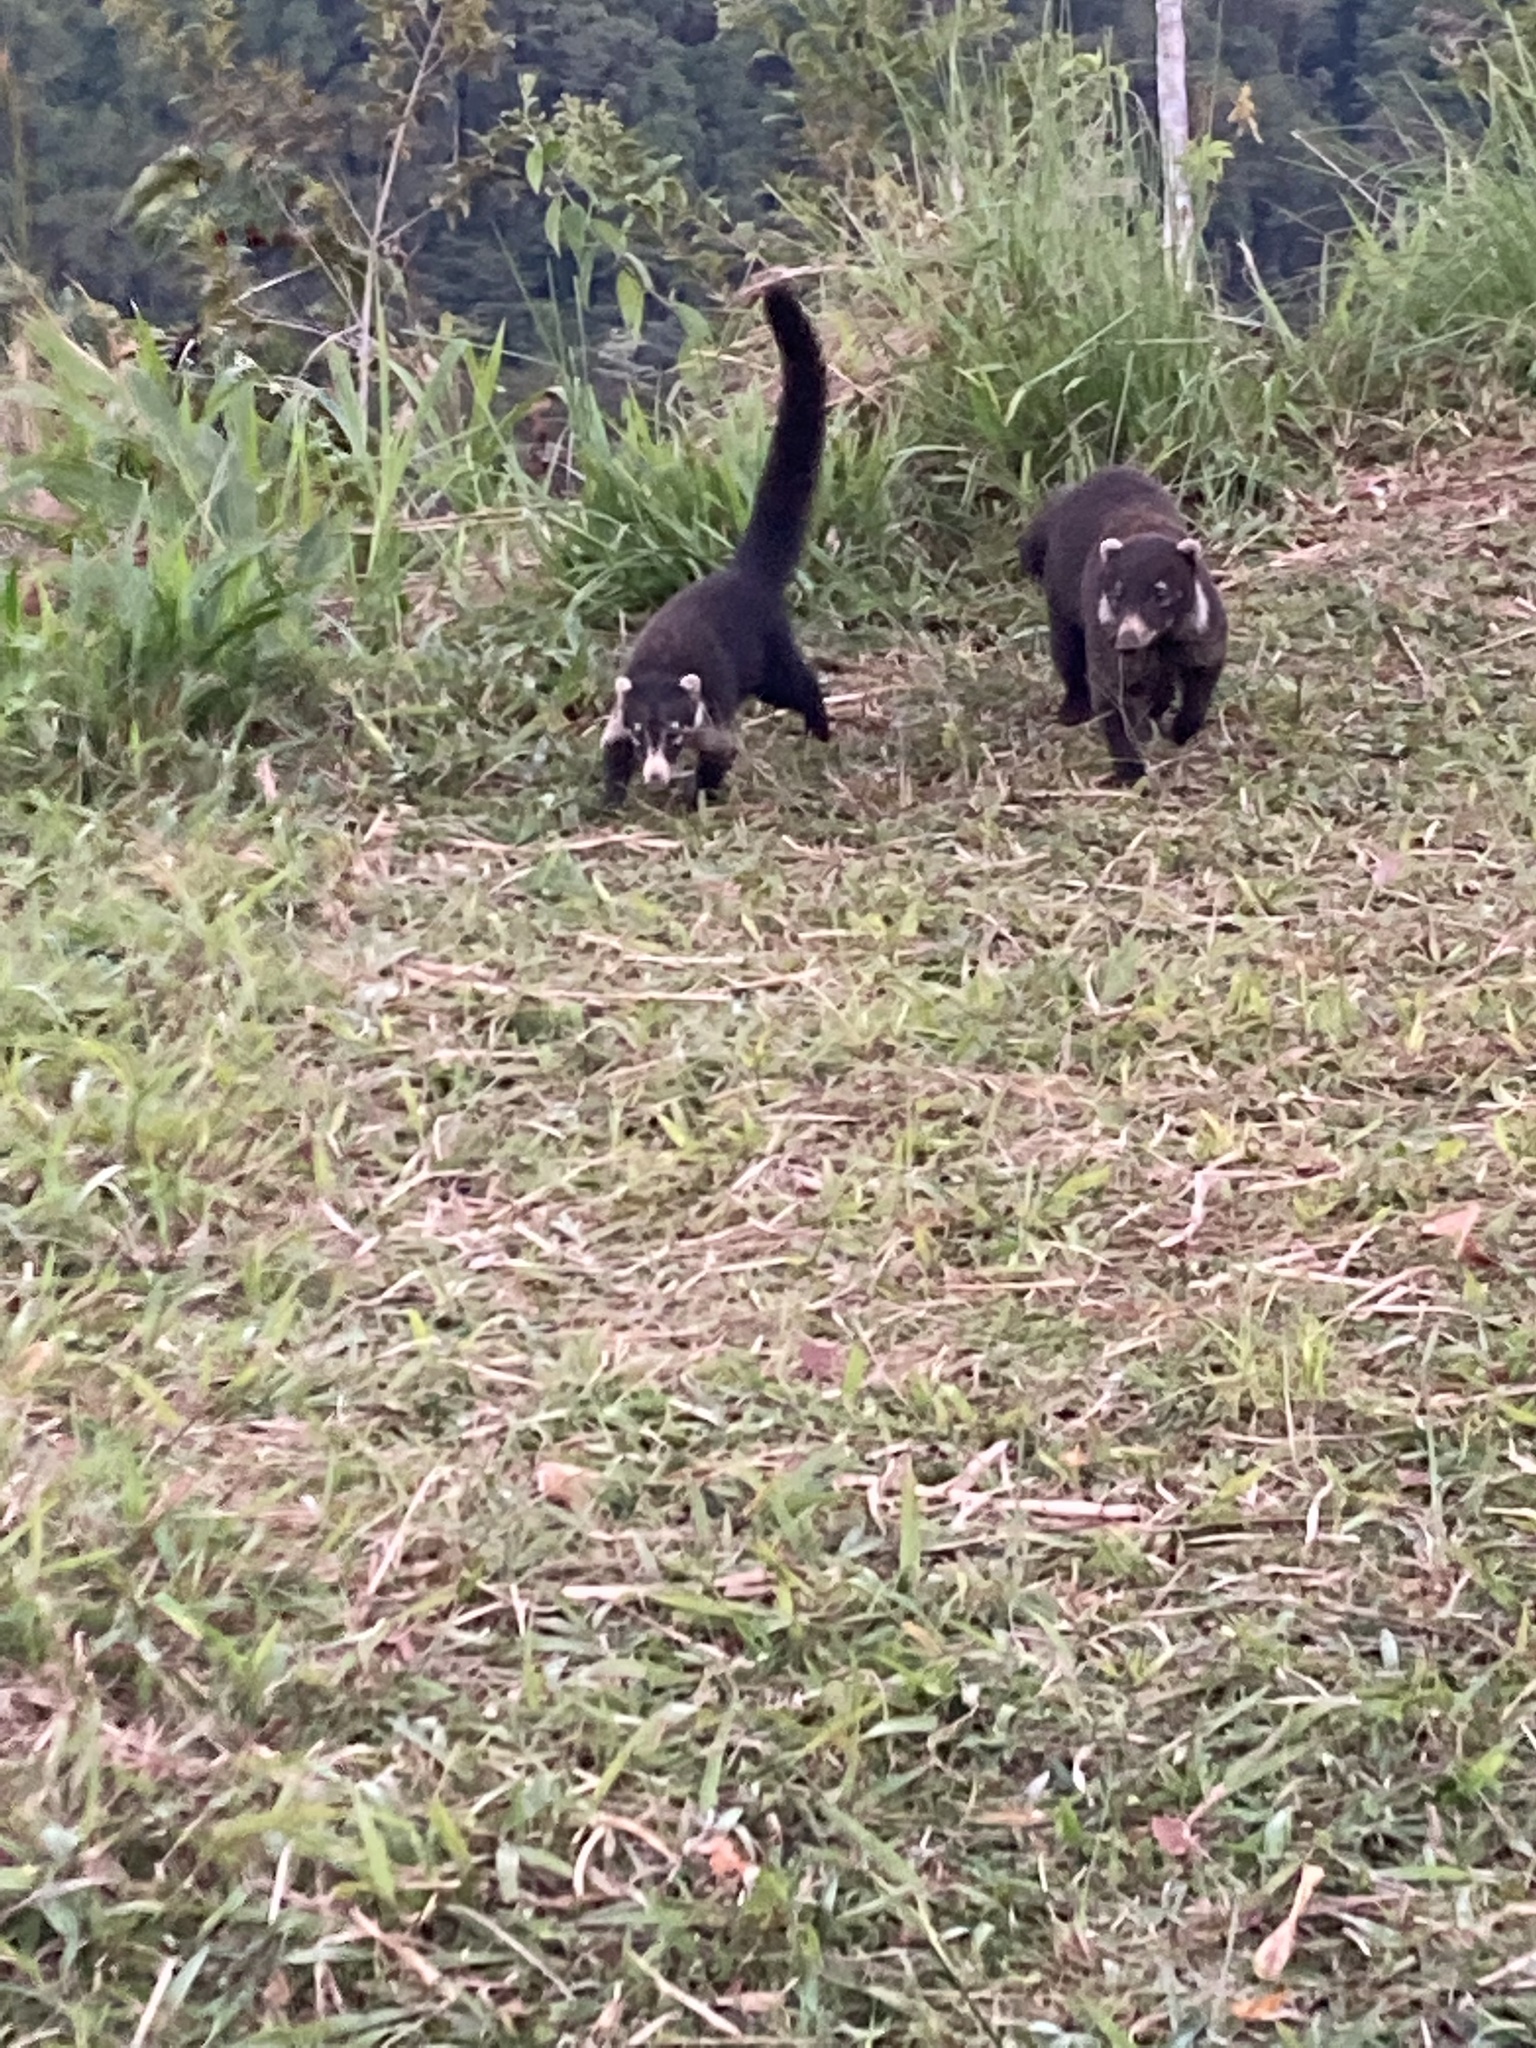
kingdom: Animalia
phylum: Chordata
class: Mammalia
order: Carnivora
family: Procyonidae
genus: Nasua
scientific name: Nasua narica
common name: White-nosed coati
